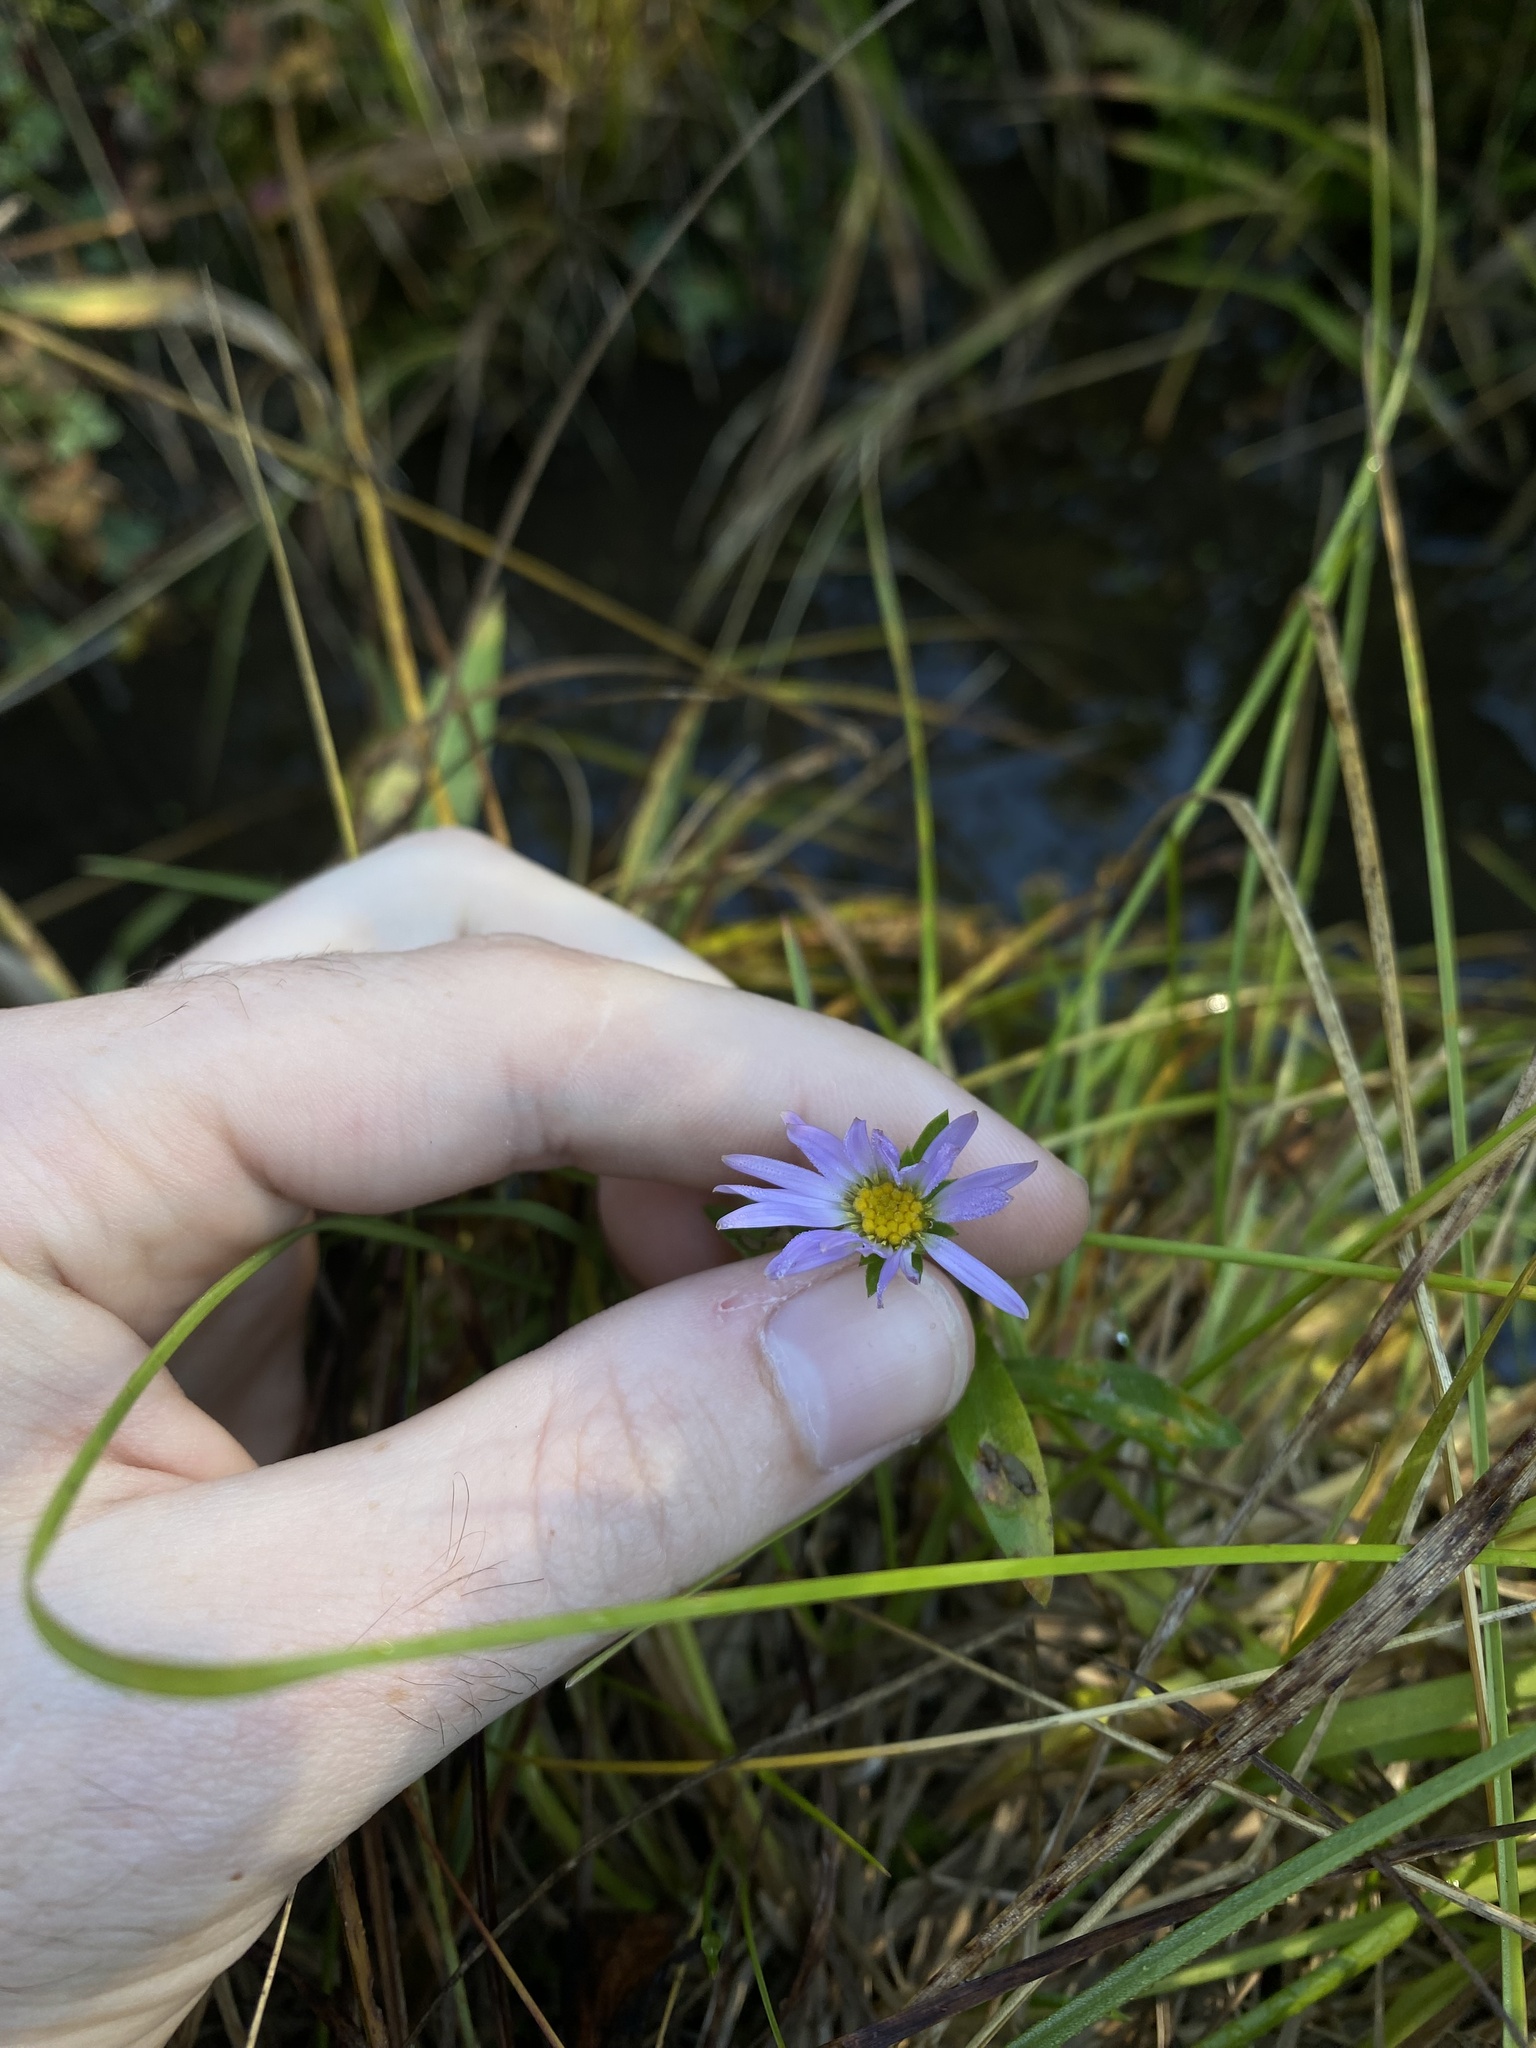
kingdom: Plantae
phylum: Tracheophyta
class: Magnoliopsida
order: Asterales
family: Asteraceae
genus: Symphyotrichum
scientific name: Symphyotrichum foliaceum
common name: Leafy aster
